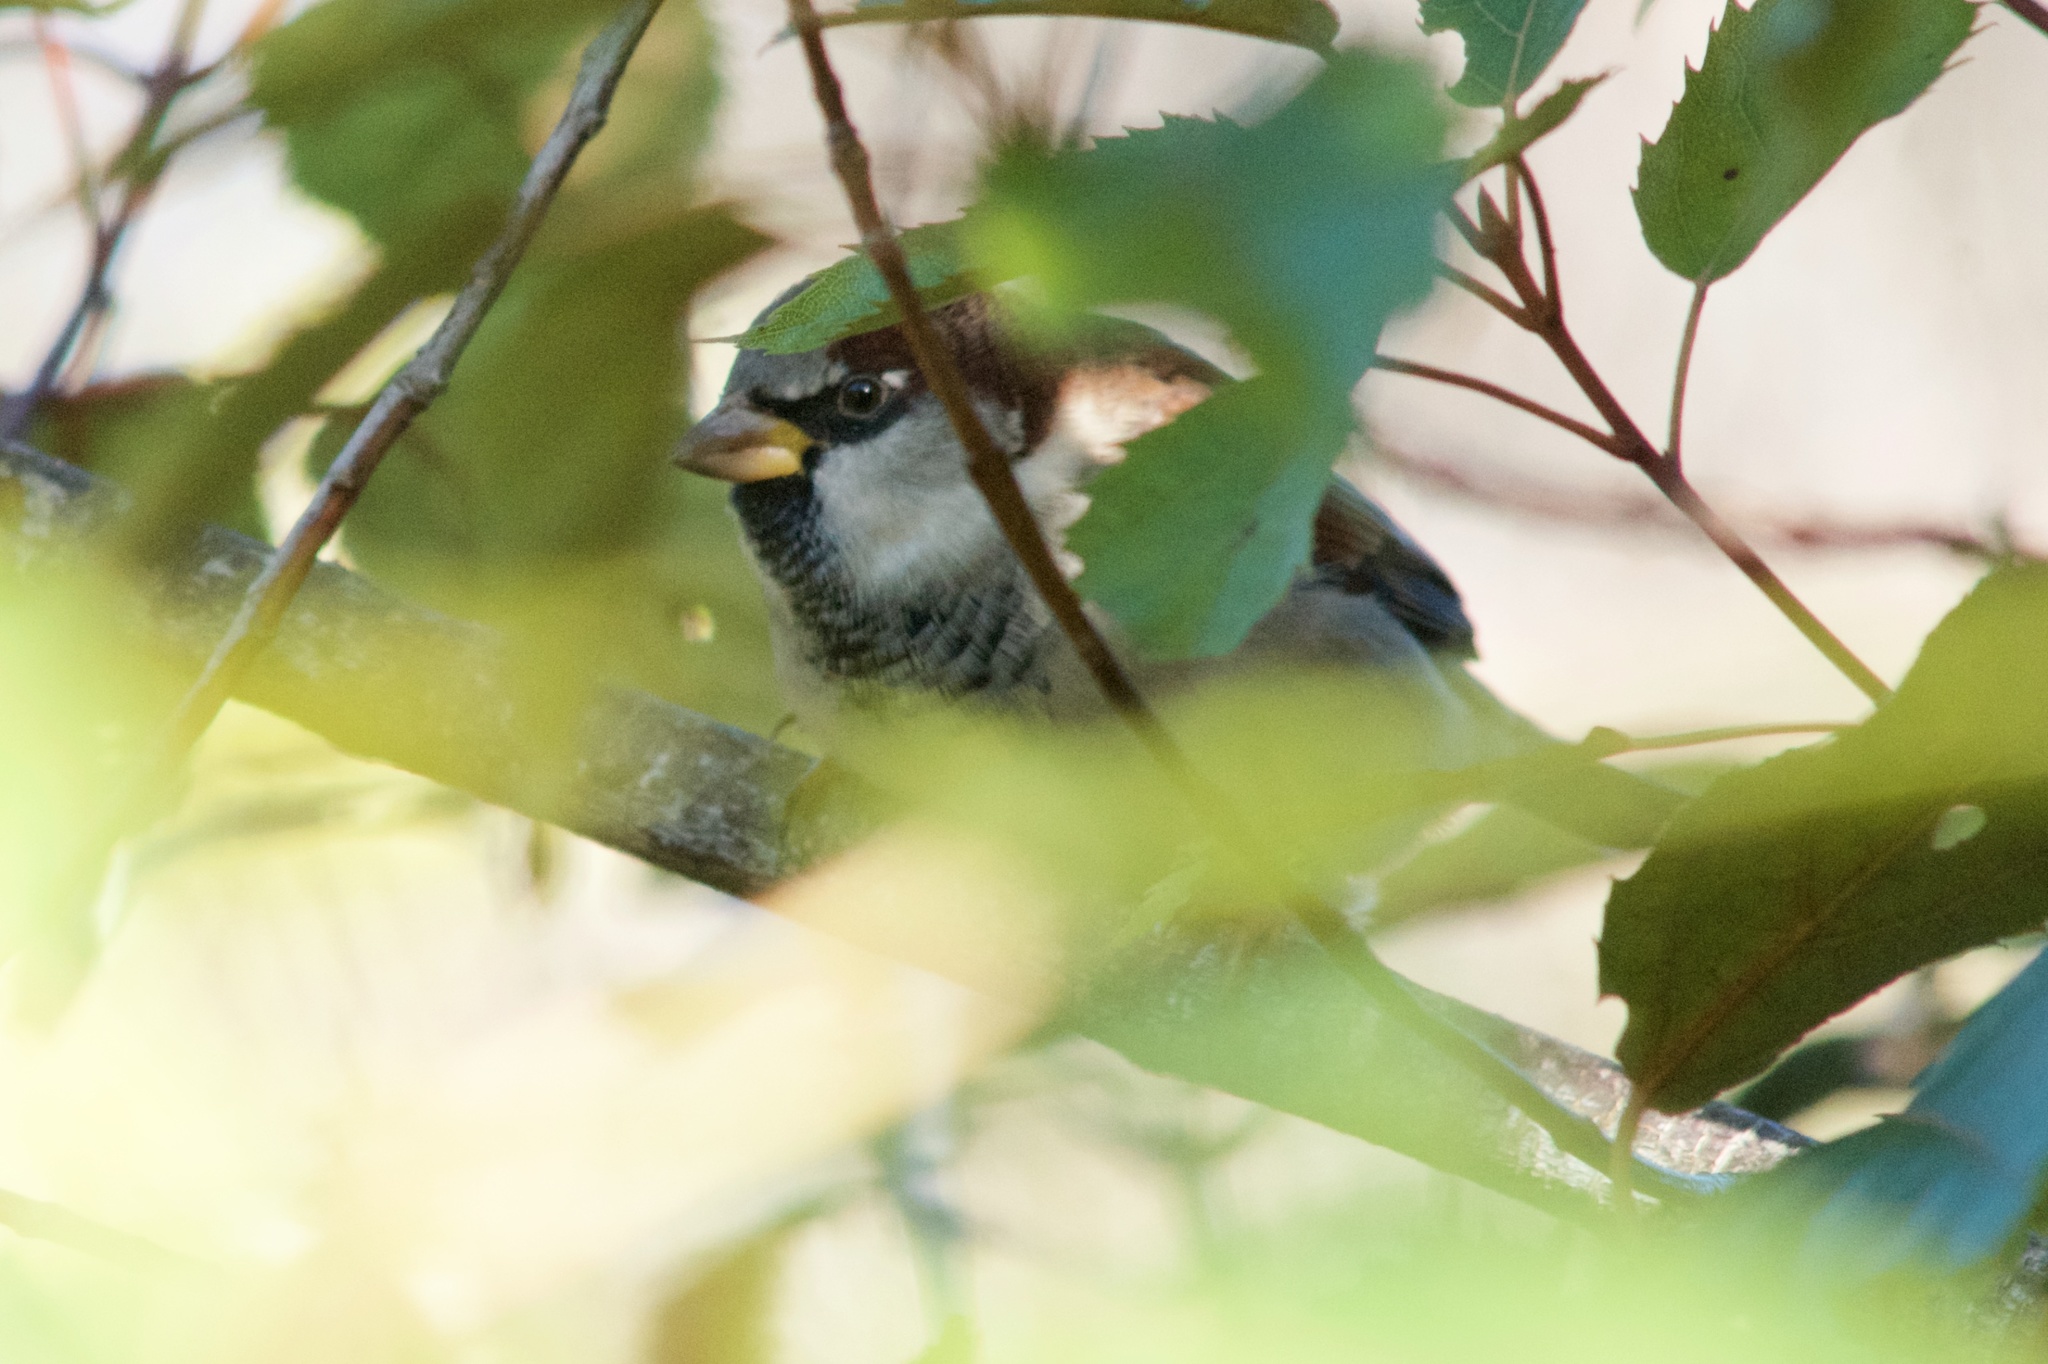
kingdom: Animalia
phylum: Chordata
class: Aves
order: Passeriformes
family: Passeridae
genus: Passer
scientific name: Passer domesticus
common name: House sparrow
